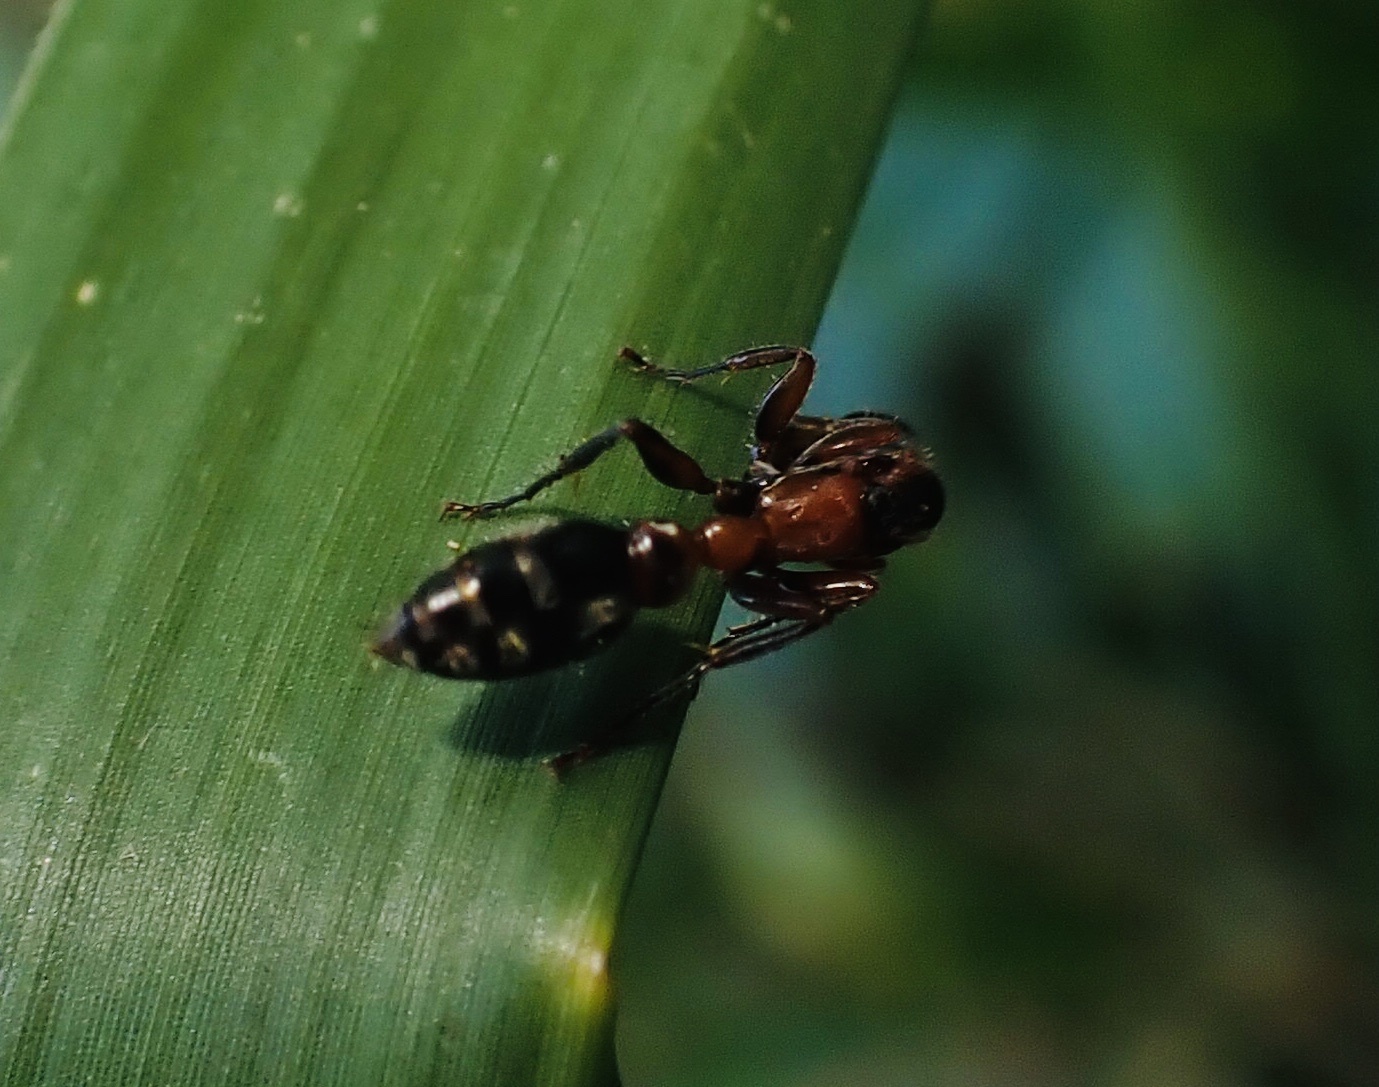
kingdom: Animalia
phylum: Arthropoda
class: Insecta
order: Hymenoptera
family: Formicidae
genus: Pseudomyrmex
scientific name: Pseudomyrmex gracilis
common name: Graceful twig ant
